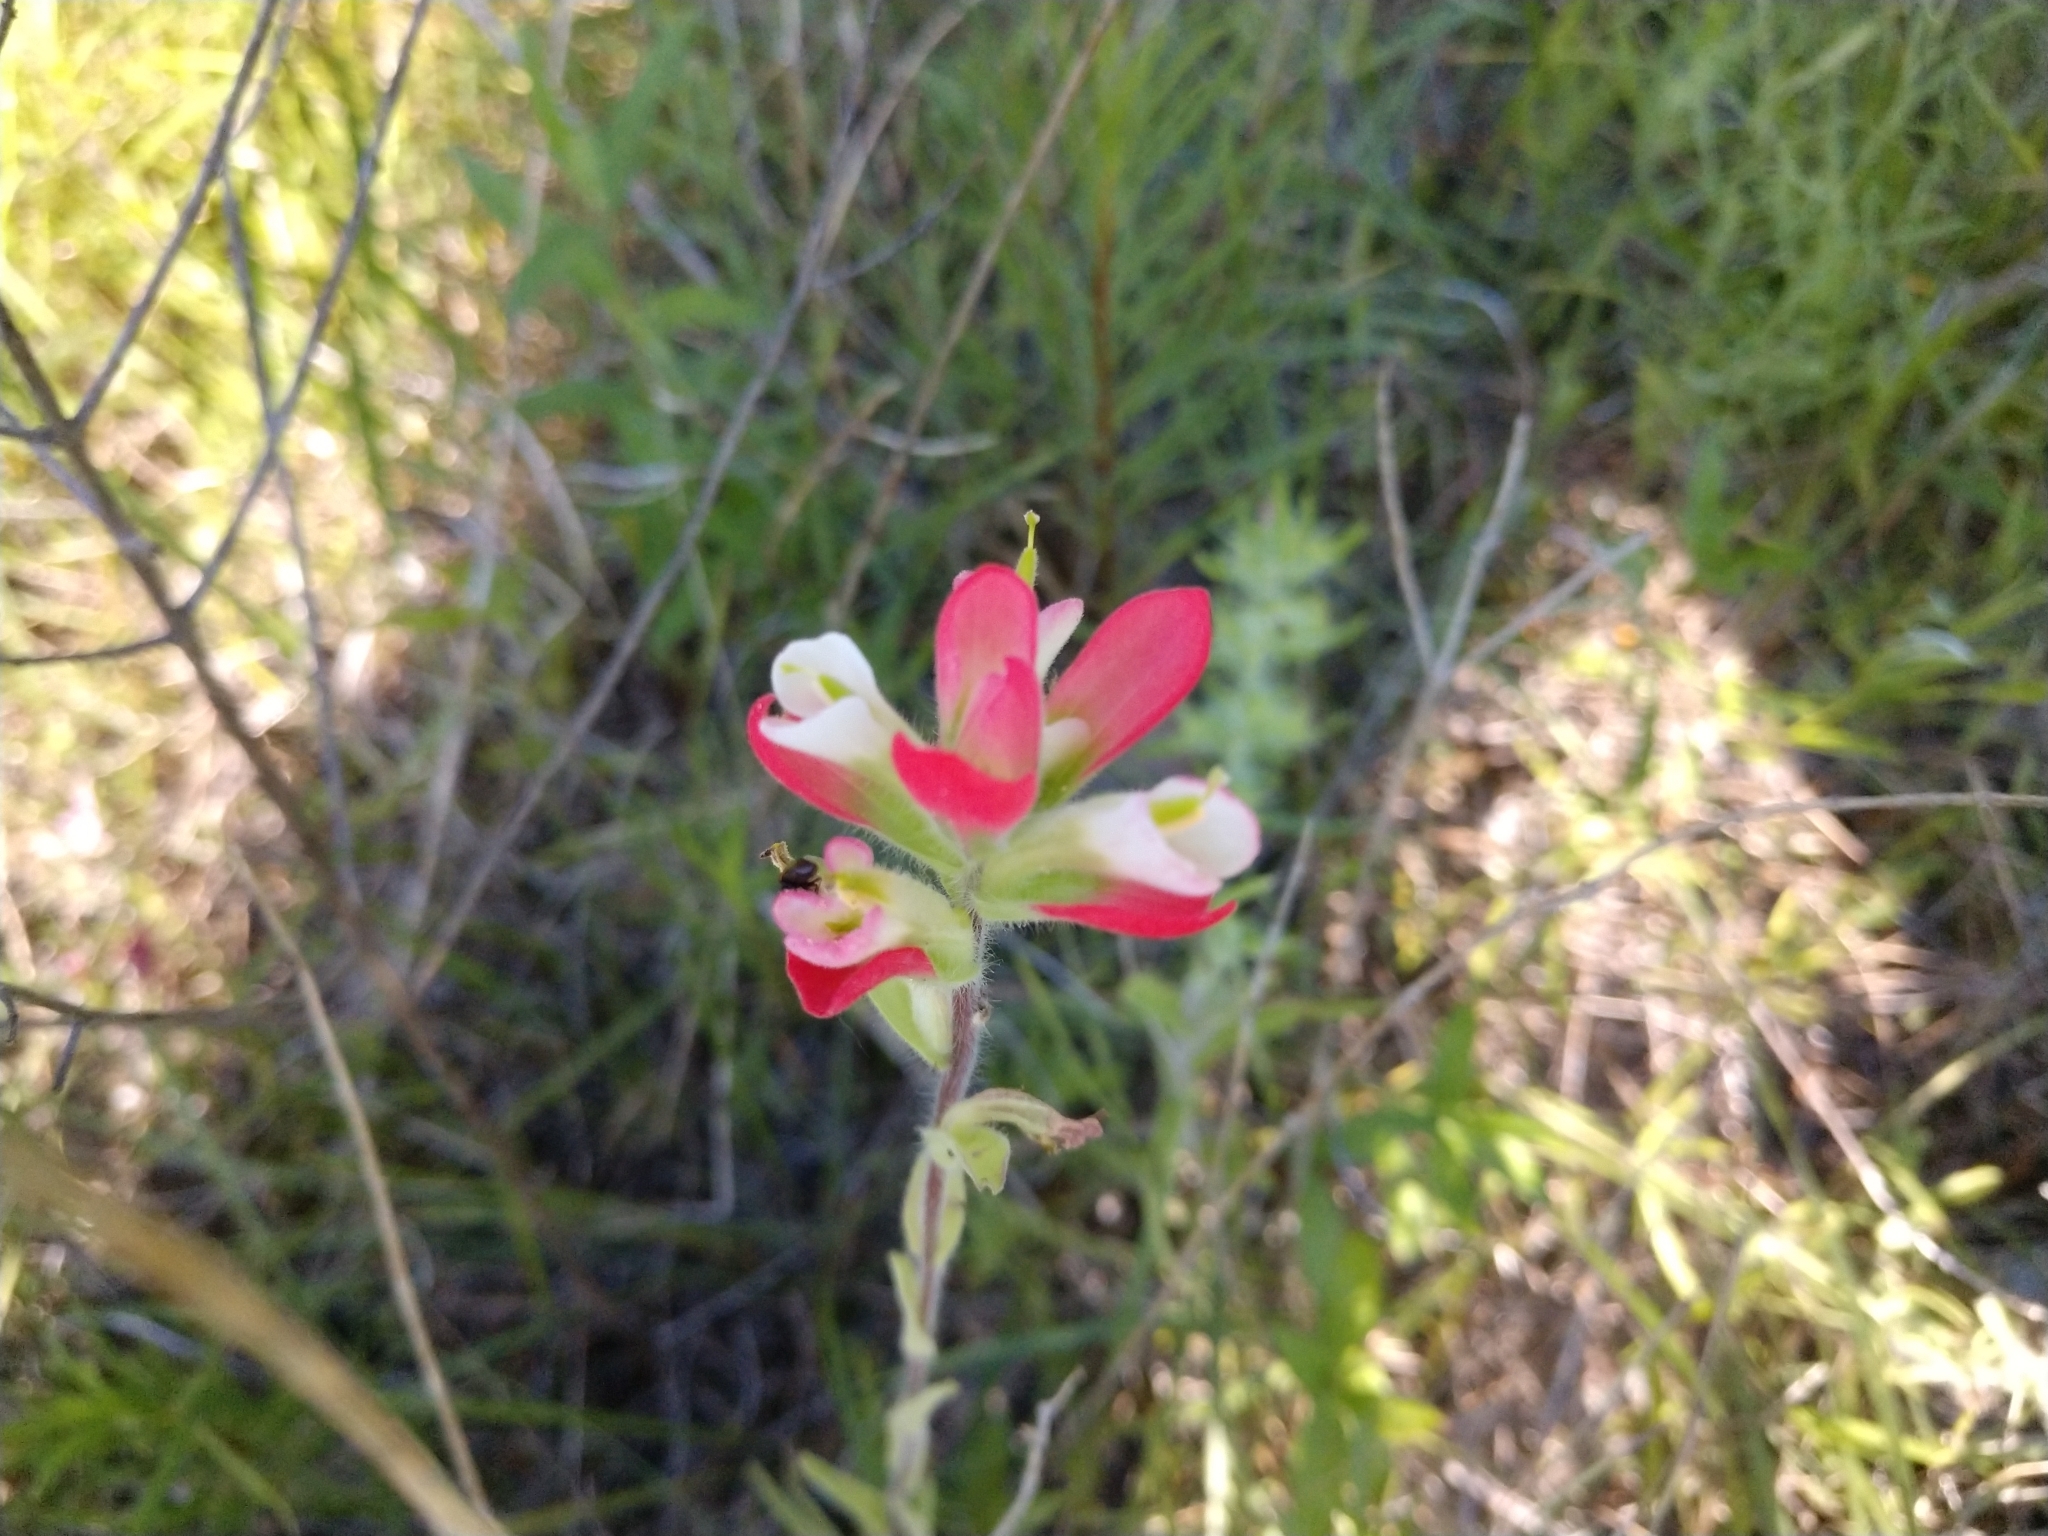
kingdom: Plantae
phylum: Tracheophyta
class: Magnoliopsida
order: Lamiales
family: Orobanchaceae
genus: Castilleja
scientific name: Castilleja indivisa
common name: Texas paintbrush
